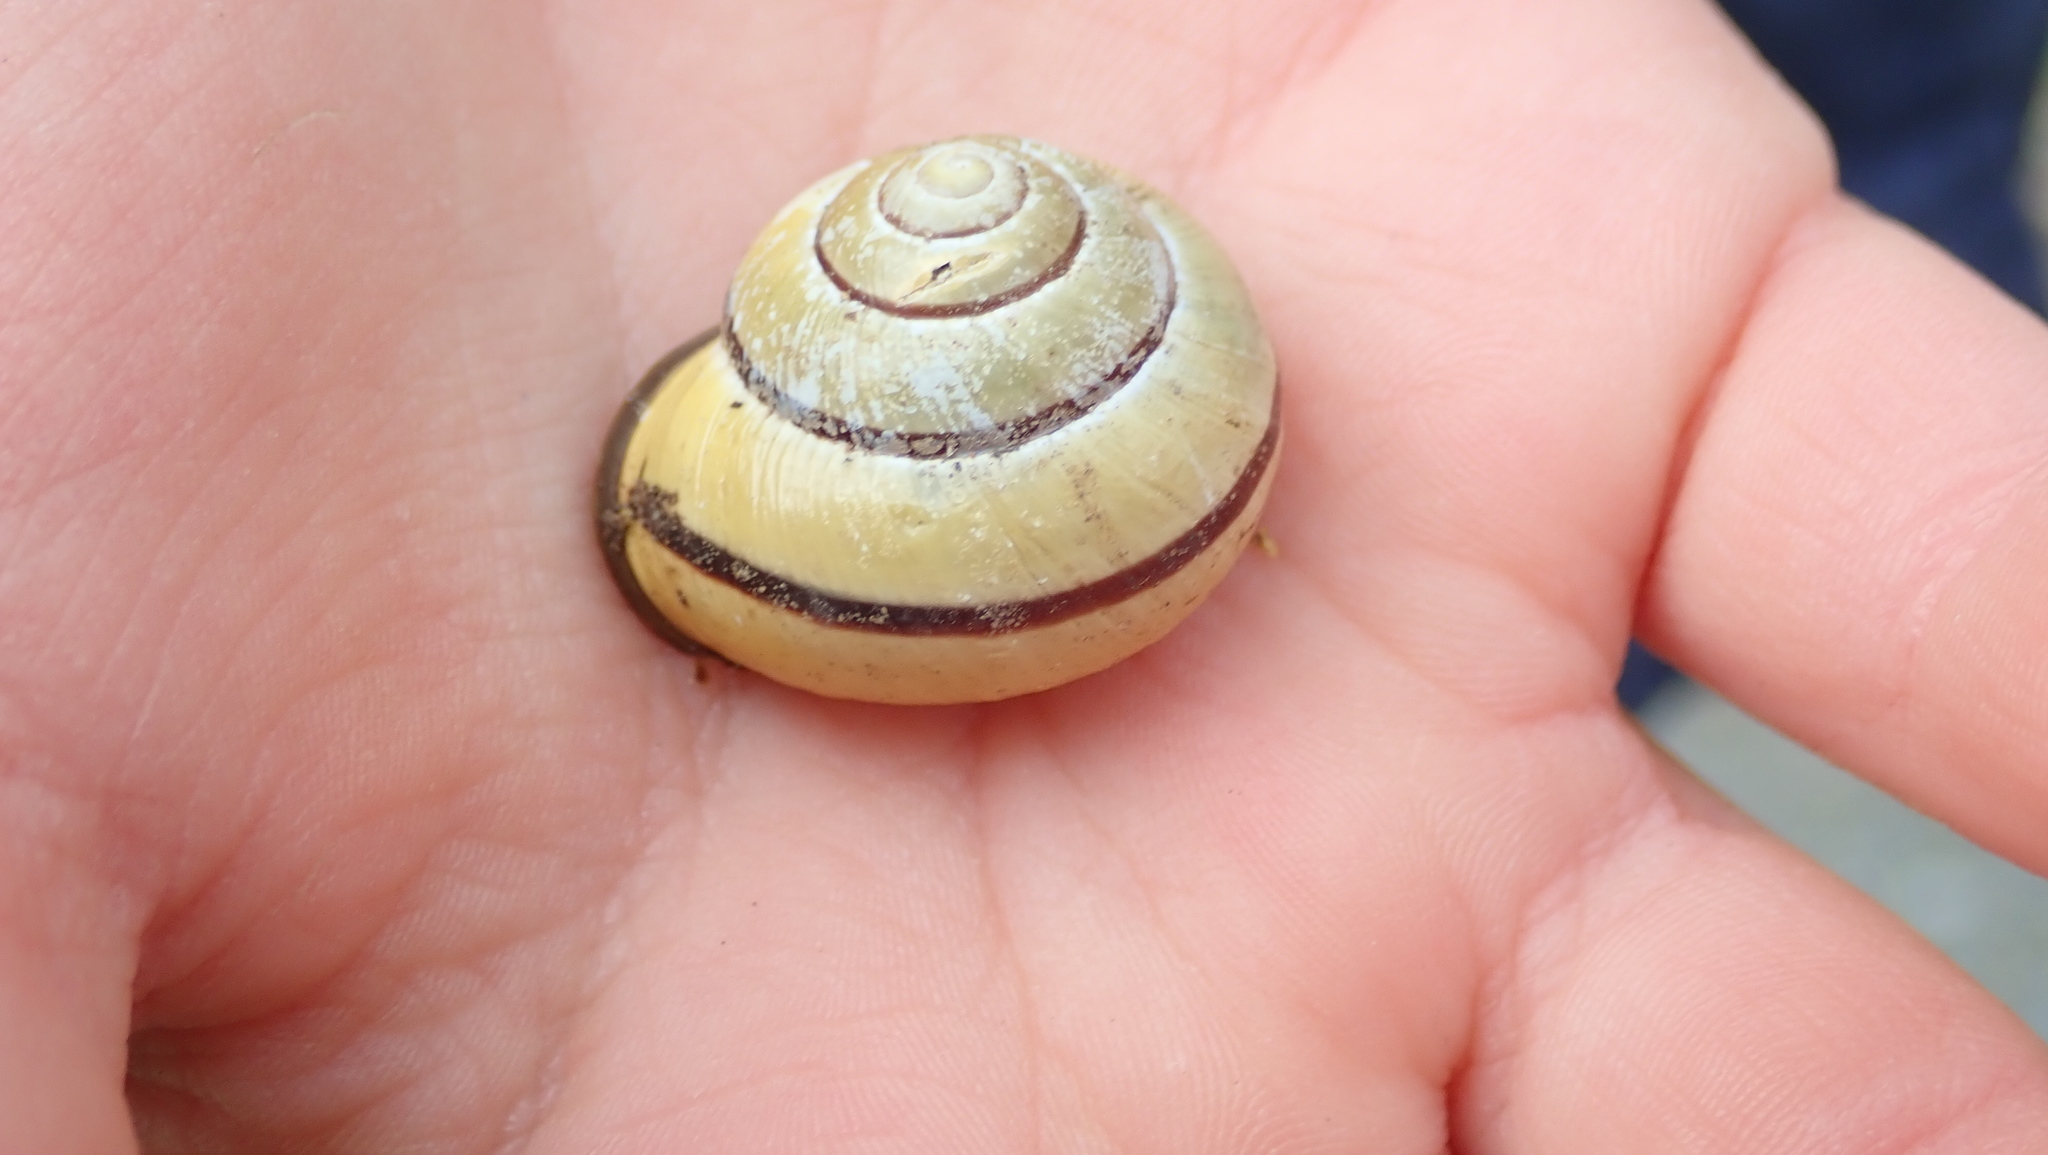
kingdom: Animalia
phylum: Mollusca
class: Gastropoda
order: Stylommatophora
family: Helicidae
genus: Cepaea
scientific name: Cepaea nemoralis
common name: Grovesnail
